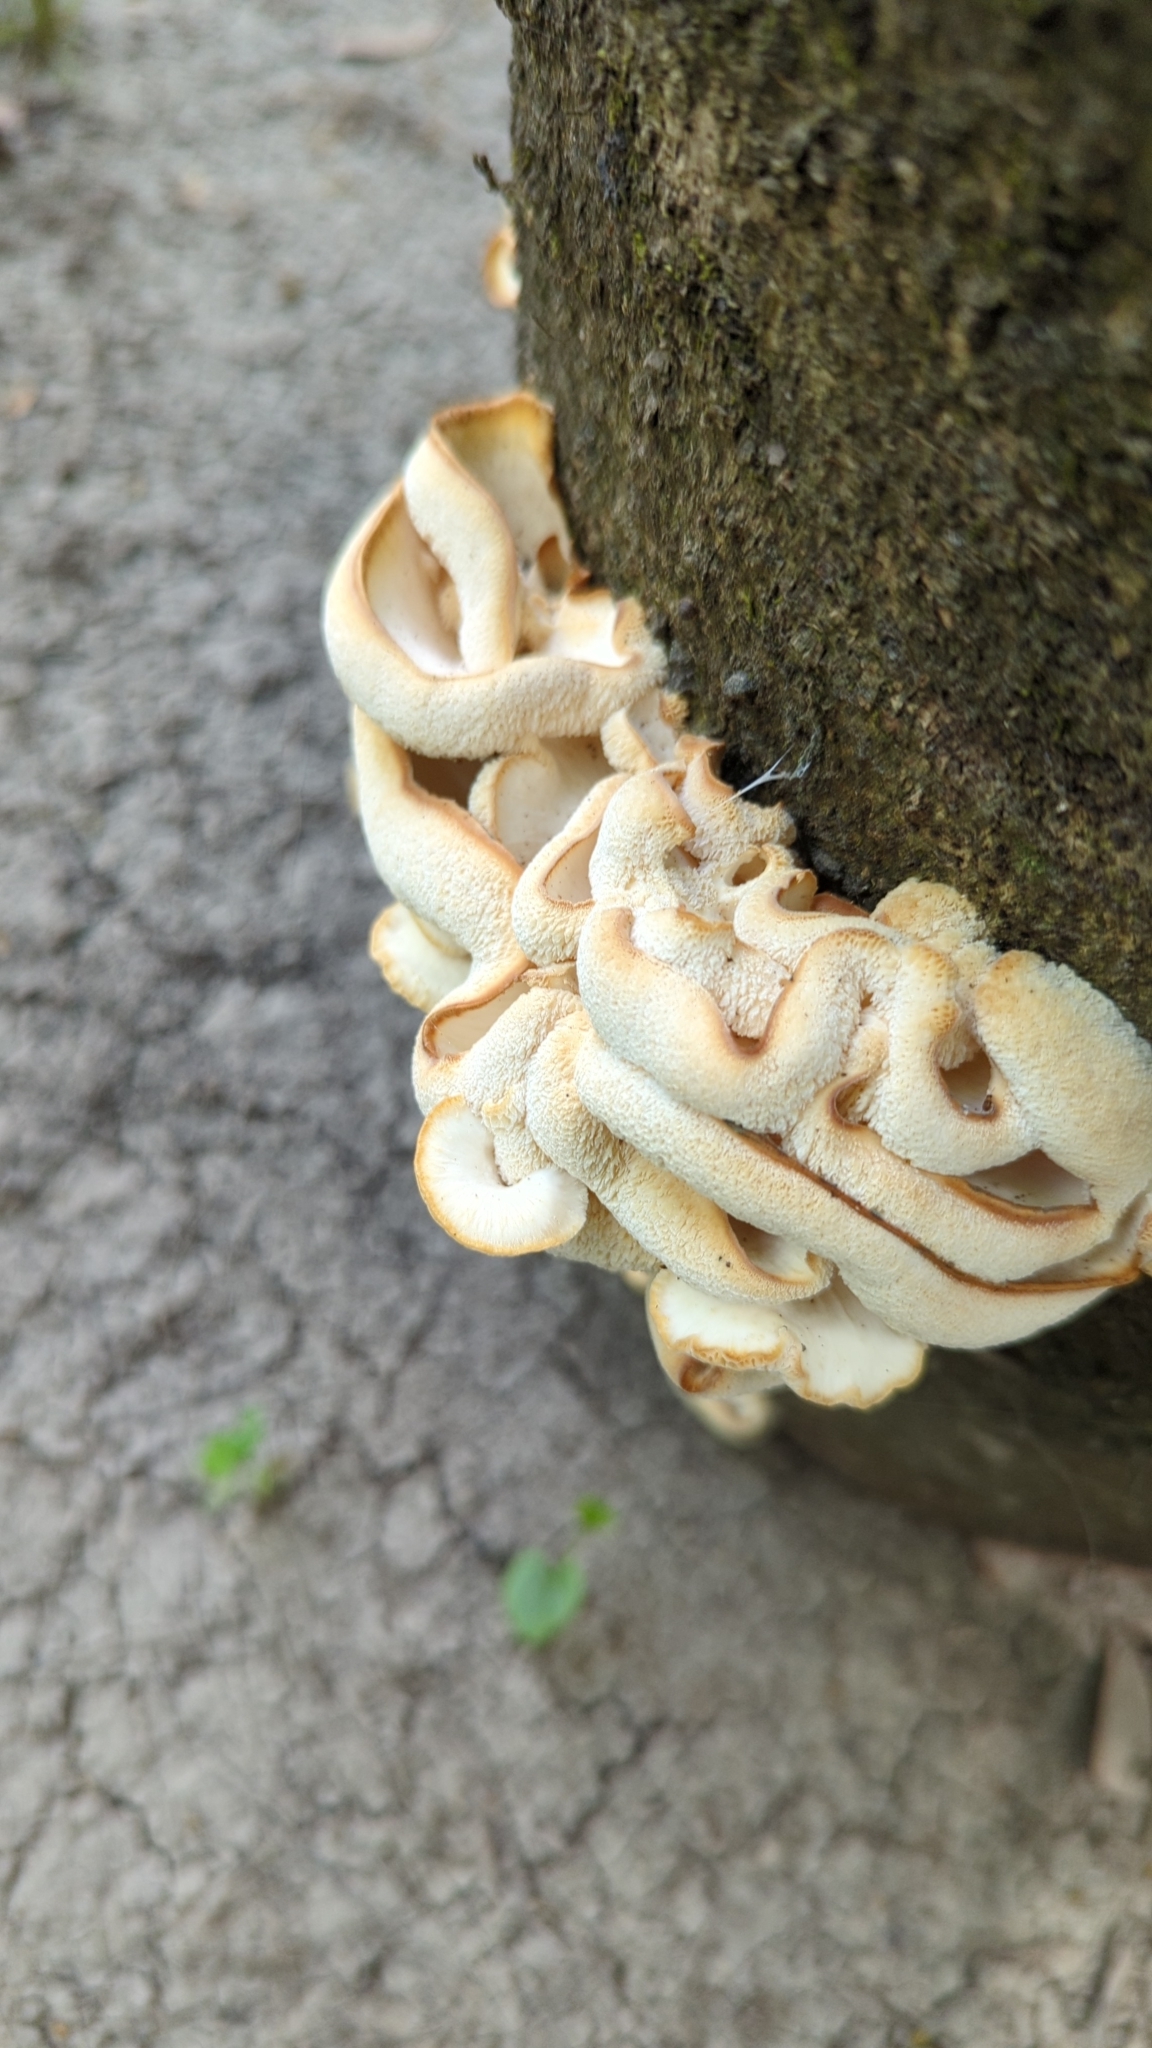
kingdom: Fungi
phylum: Basidiomycota
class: Agaricomycetes
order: Polyporales
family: Polyporaceae
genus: Favolus
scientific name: Favolus tenuiculus
